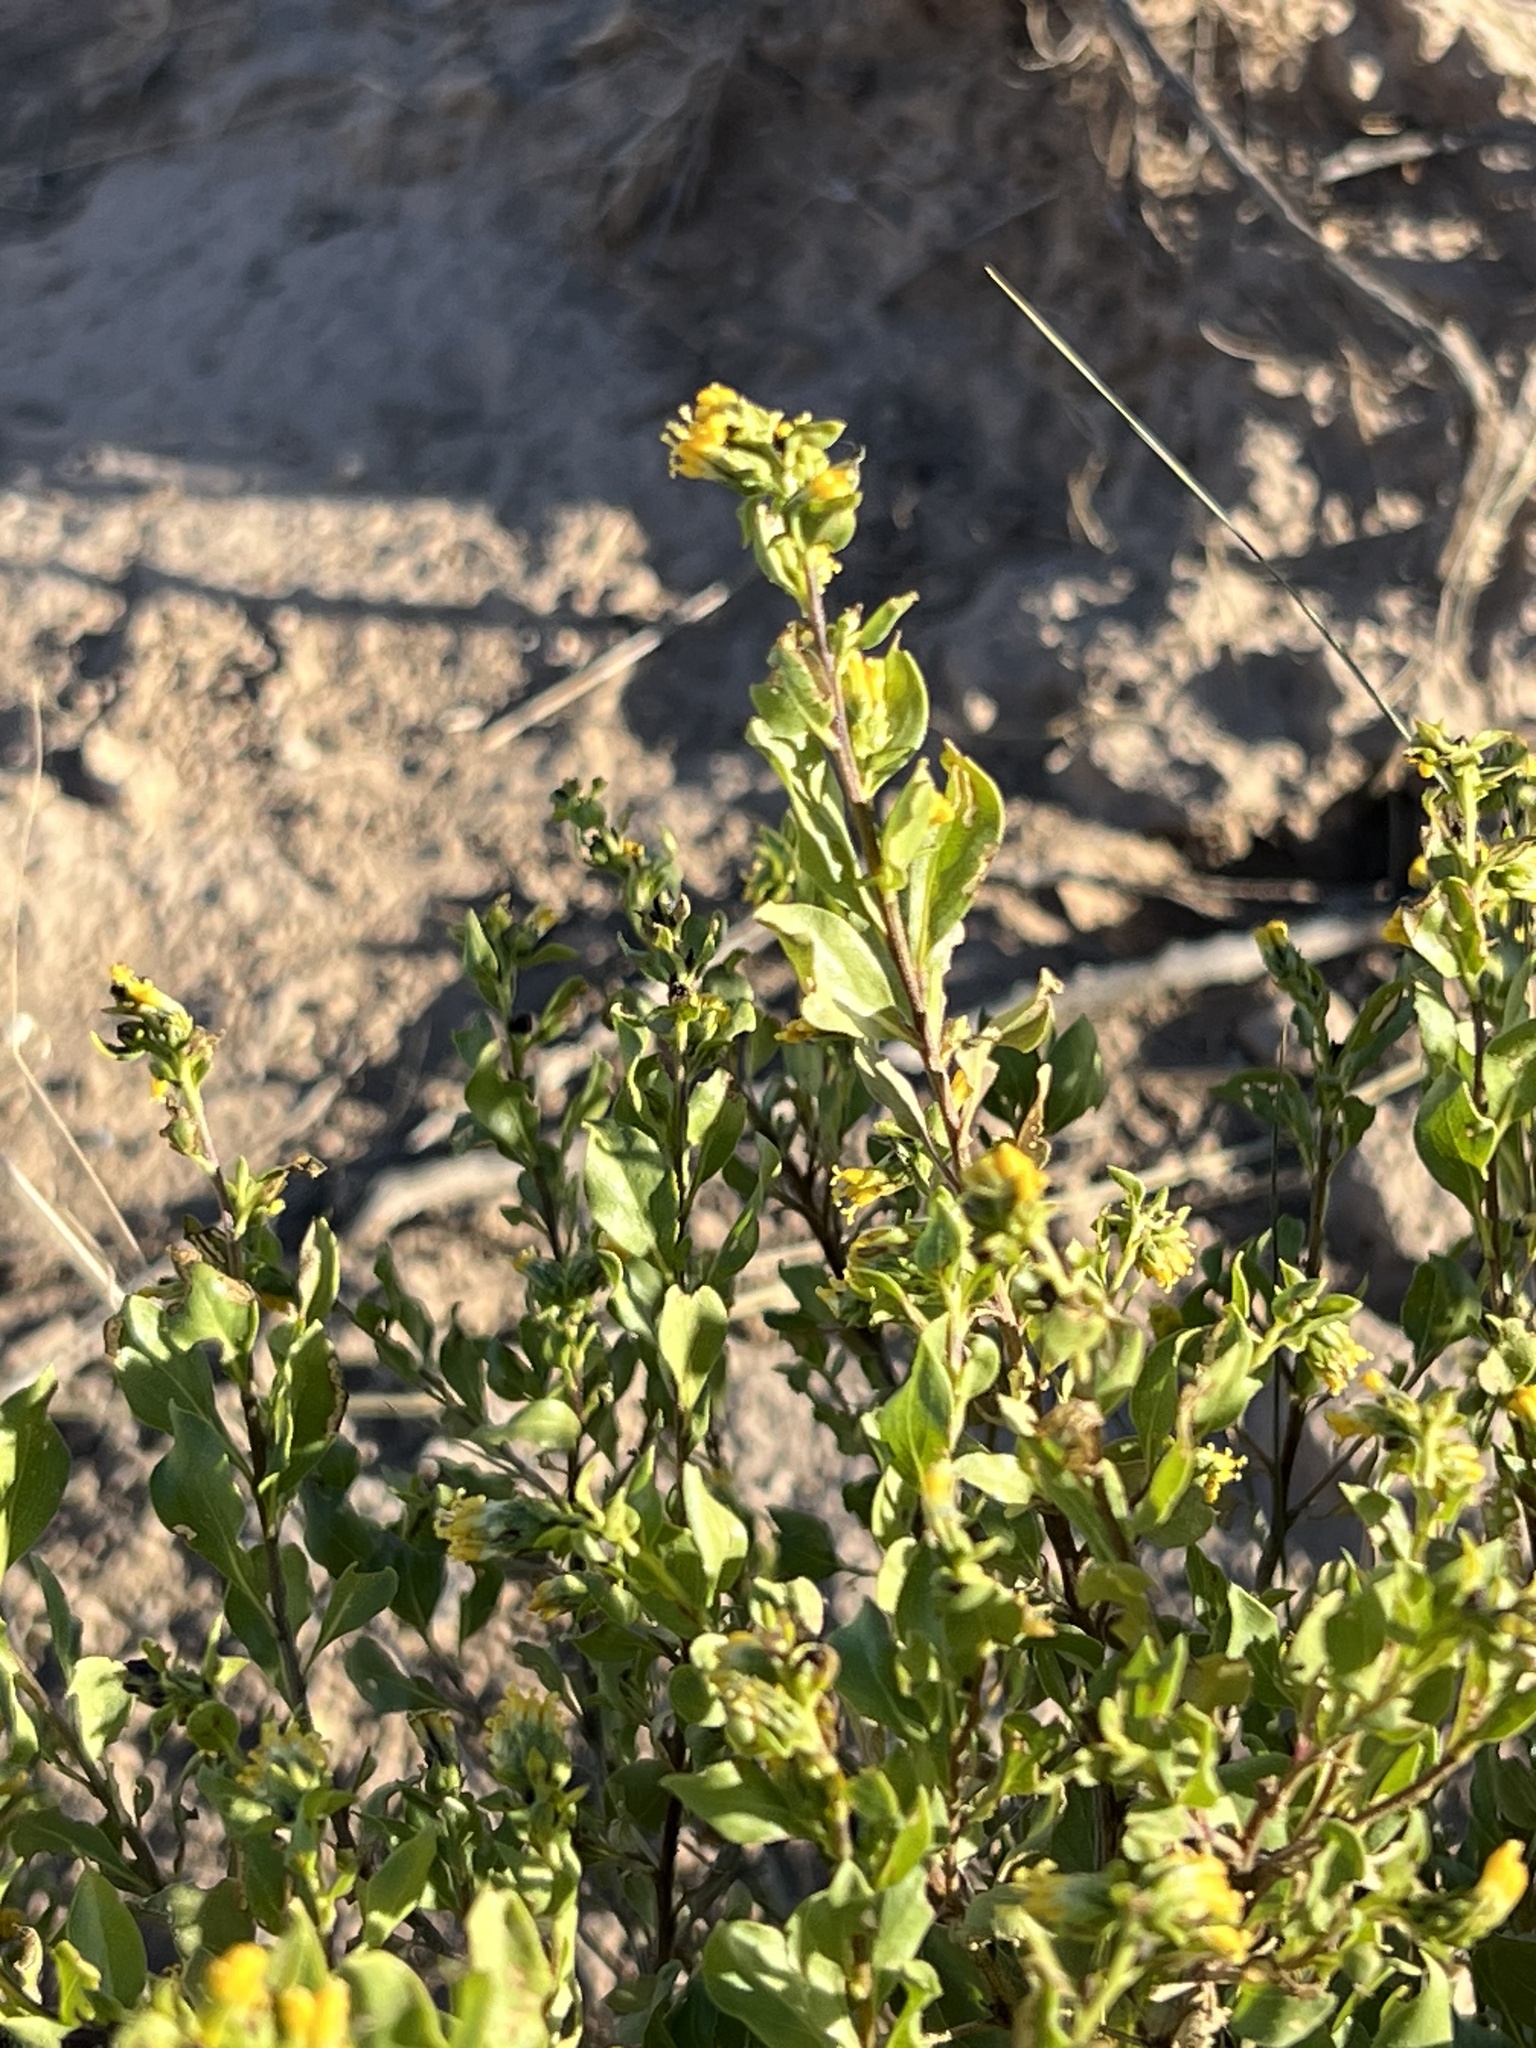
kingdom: Plantae
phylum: Tracheophyta
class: Magnoliopsida
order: Asterales
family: Asteraceae
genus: Flourensia
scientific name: Flourensia cernua
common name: Varnishbush
